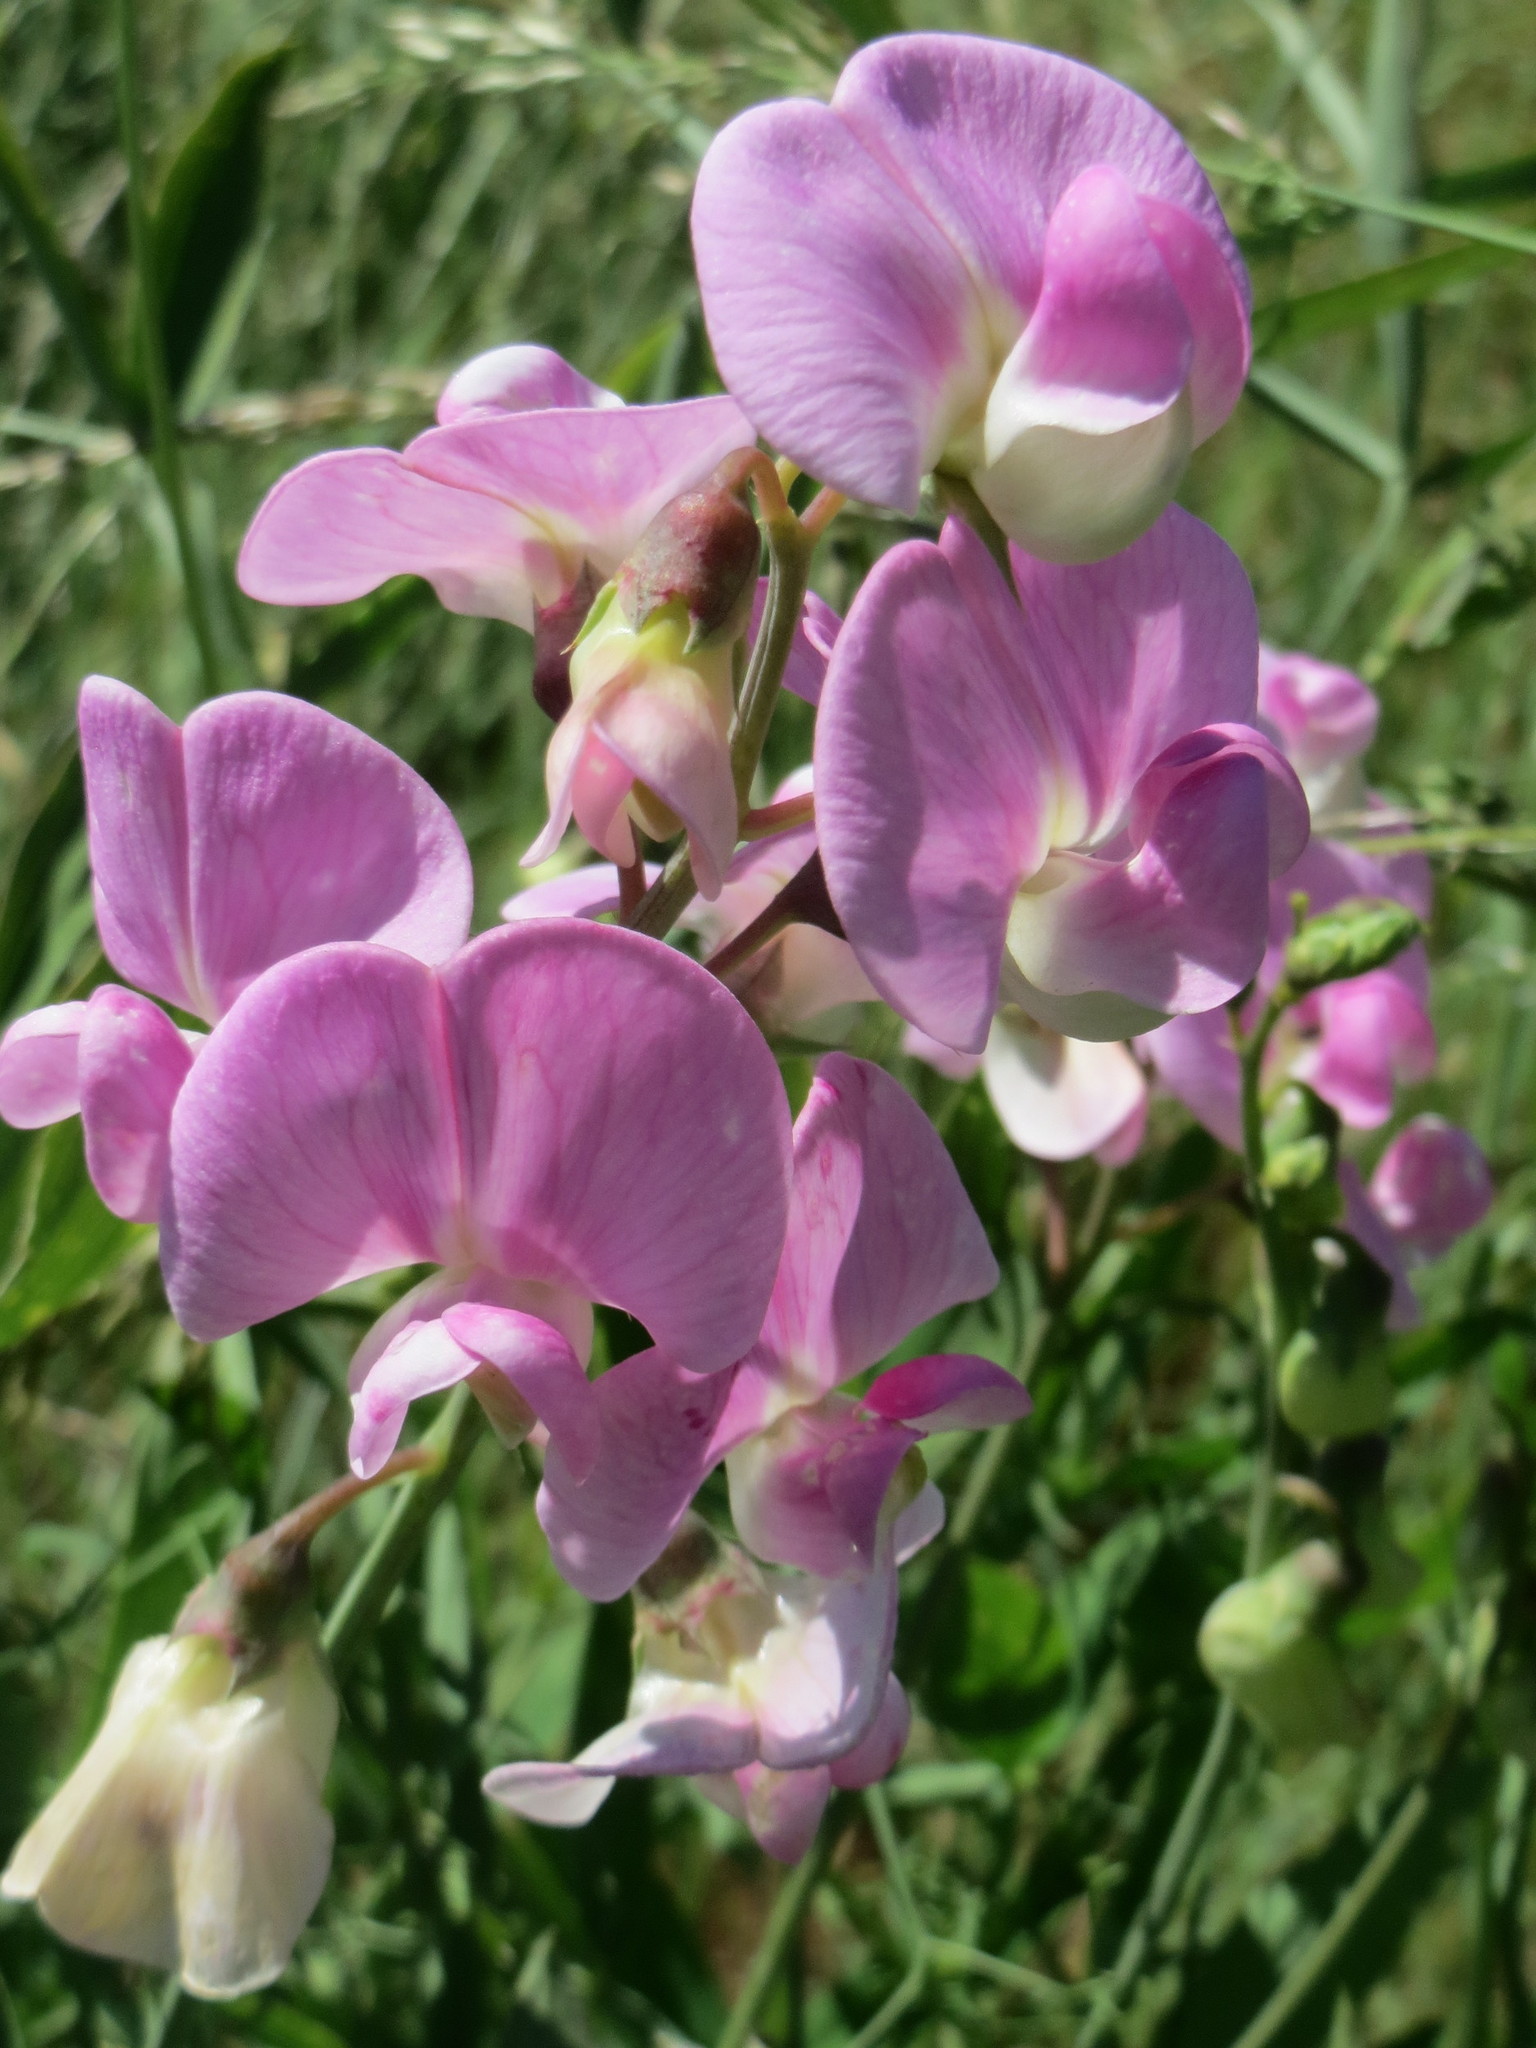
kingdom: Plantae
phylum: Tracheophyta
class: Magnoliopsida
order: Fabales
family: Fabaceae
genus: Lathyrus
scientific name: Lathyrus latifolius
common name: Perennial pea
